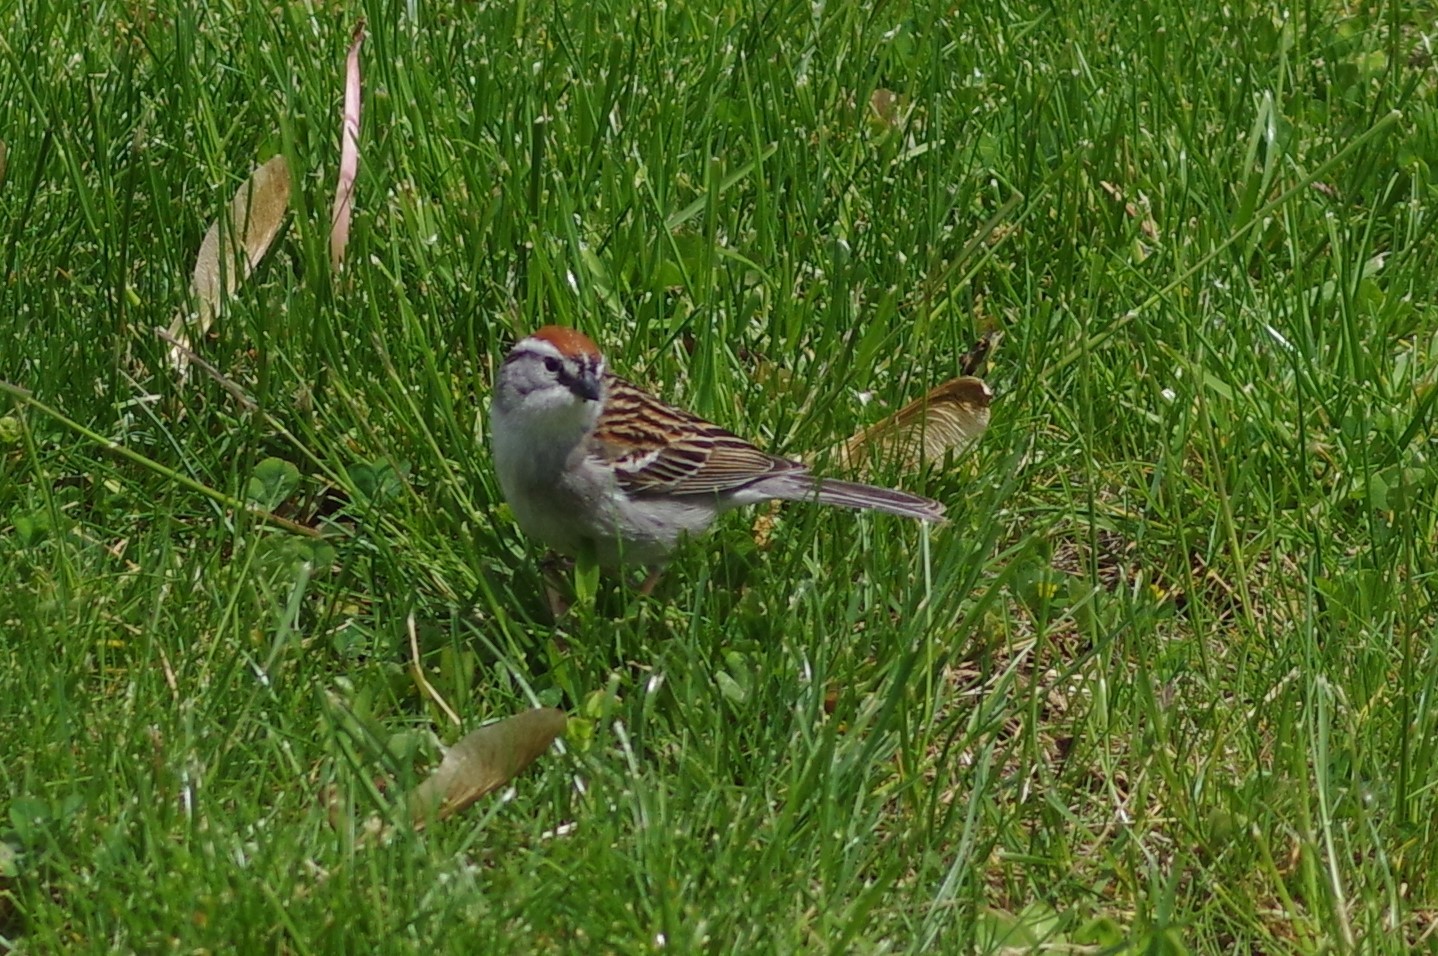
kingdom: Animalia
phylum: Chordata
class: Aves
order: Passeriformes
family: Passerellidae
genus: Spizella
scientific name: Spizella passerina
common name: Chipping sparrow
